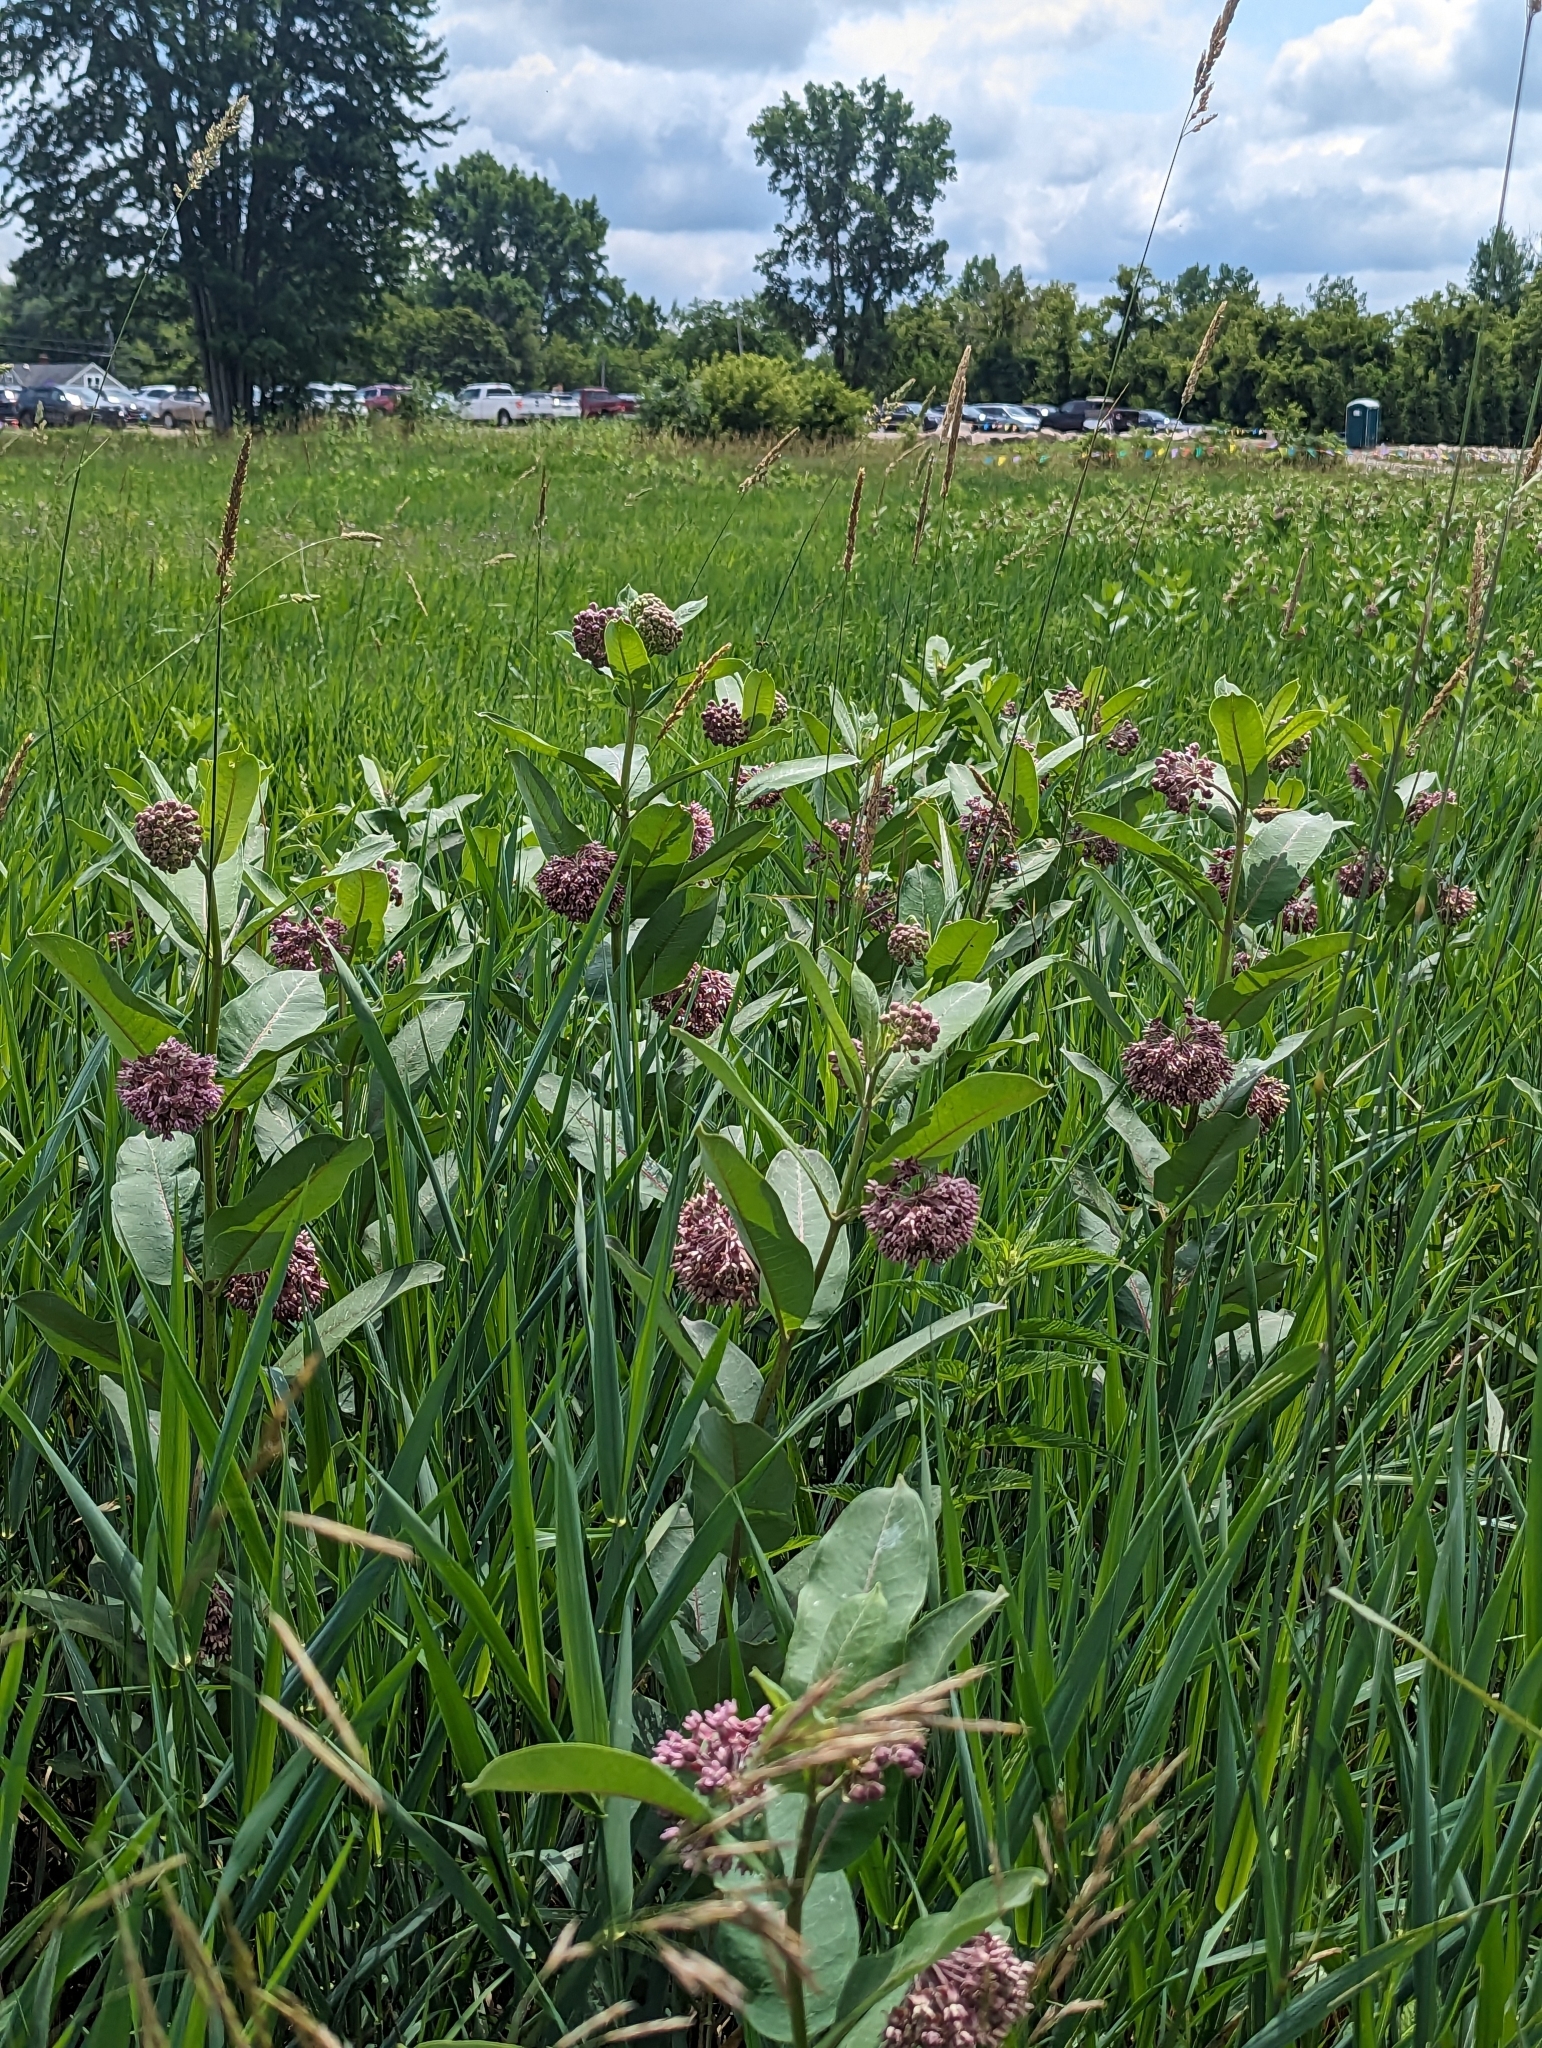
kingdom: Plantae
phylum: Tracheophyta
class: Magnoliopsida
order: Gentianales
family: Apocynaceae
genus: Asclepias
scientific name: Asclepias syriaca
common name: Common milkweed
